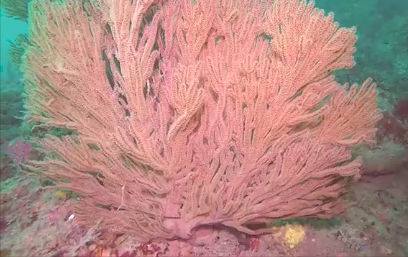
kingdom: Animalia
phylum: Cnidaria
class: Anthozoa
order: Malacalcyonacea
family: Plexauridae
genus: Muricea
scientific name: Muricea californica
